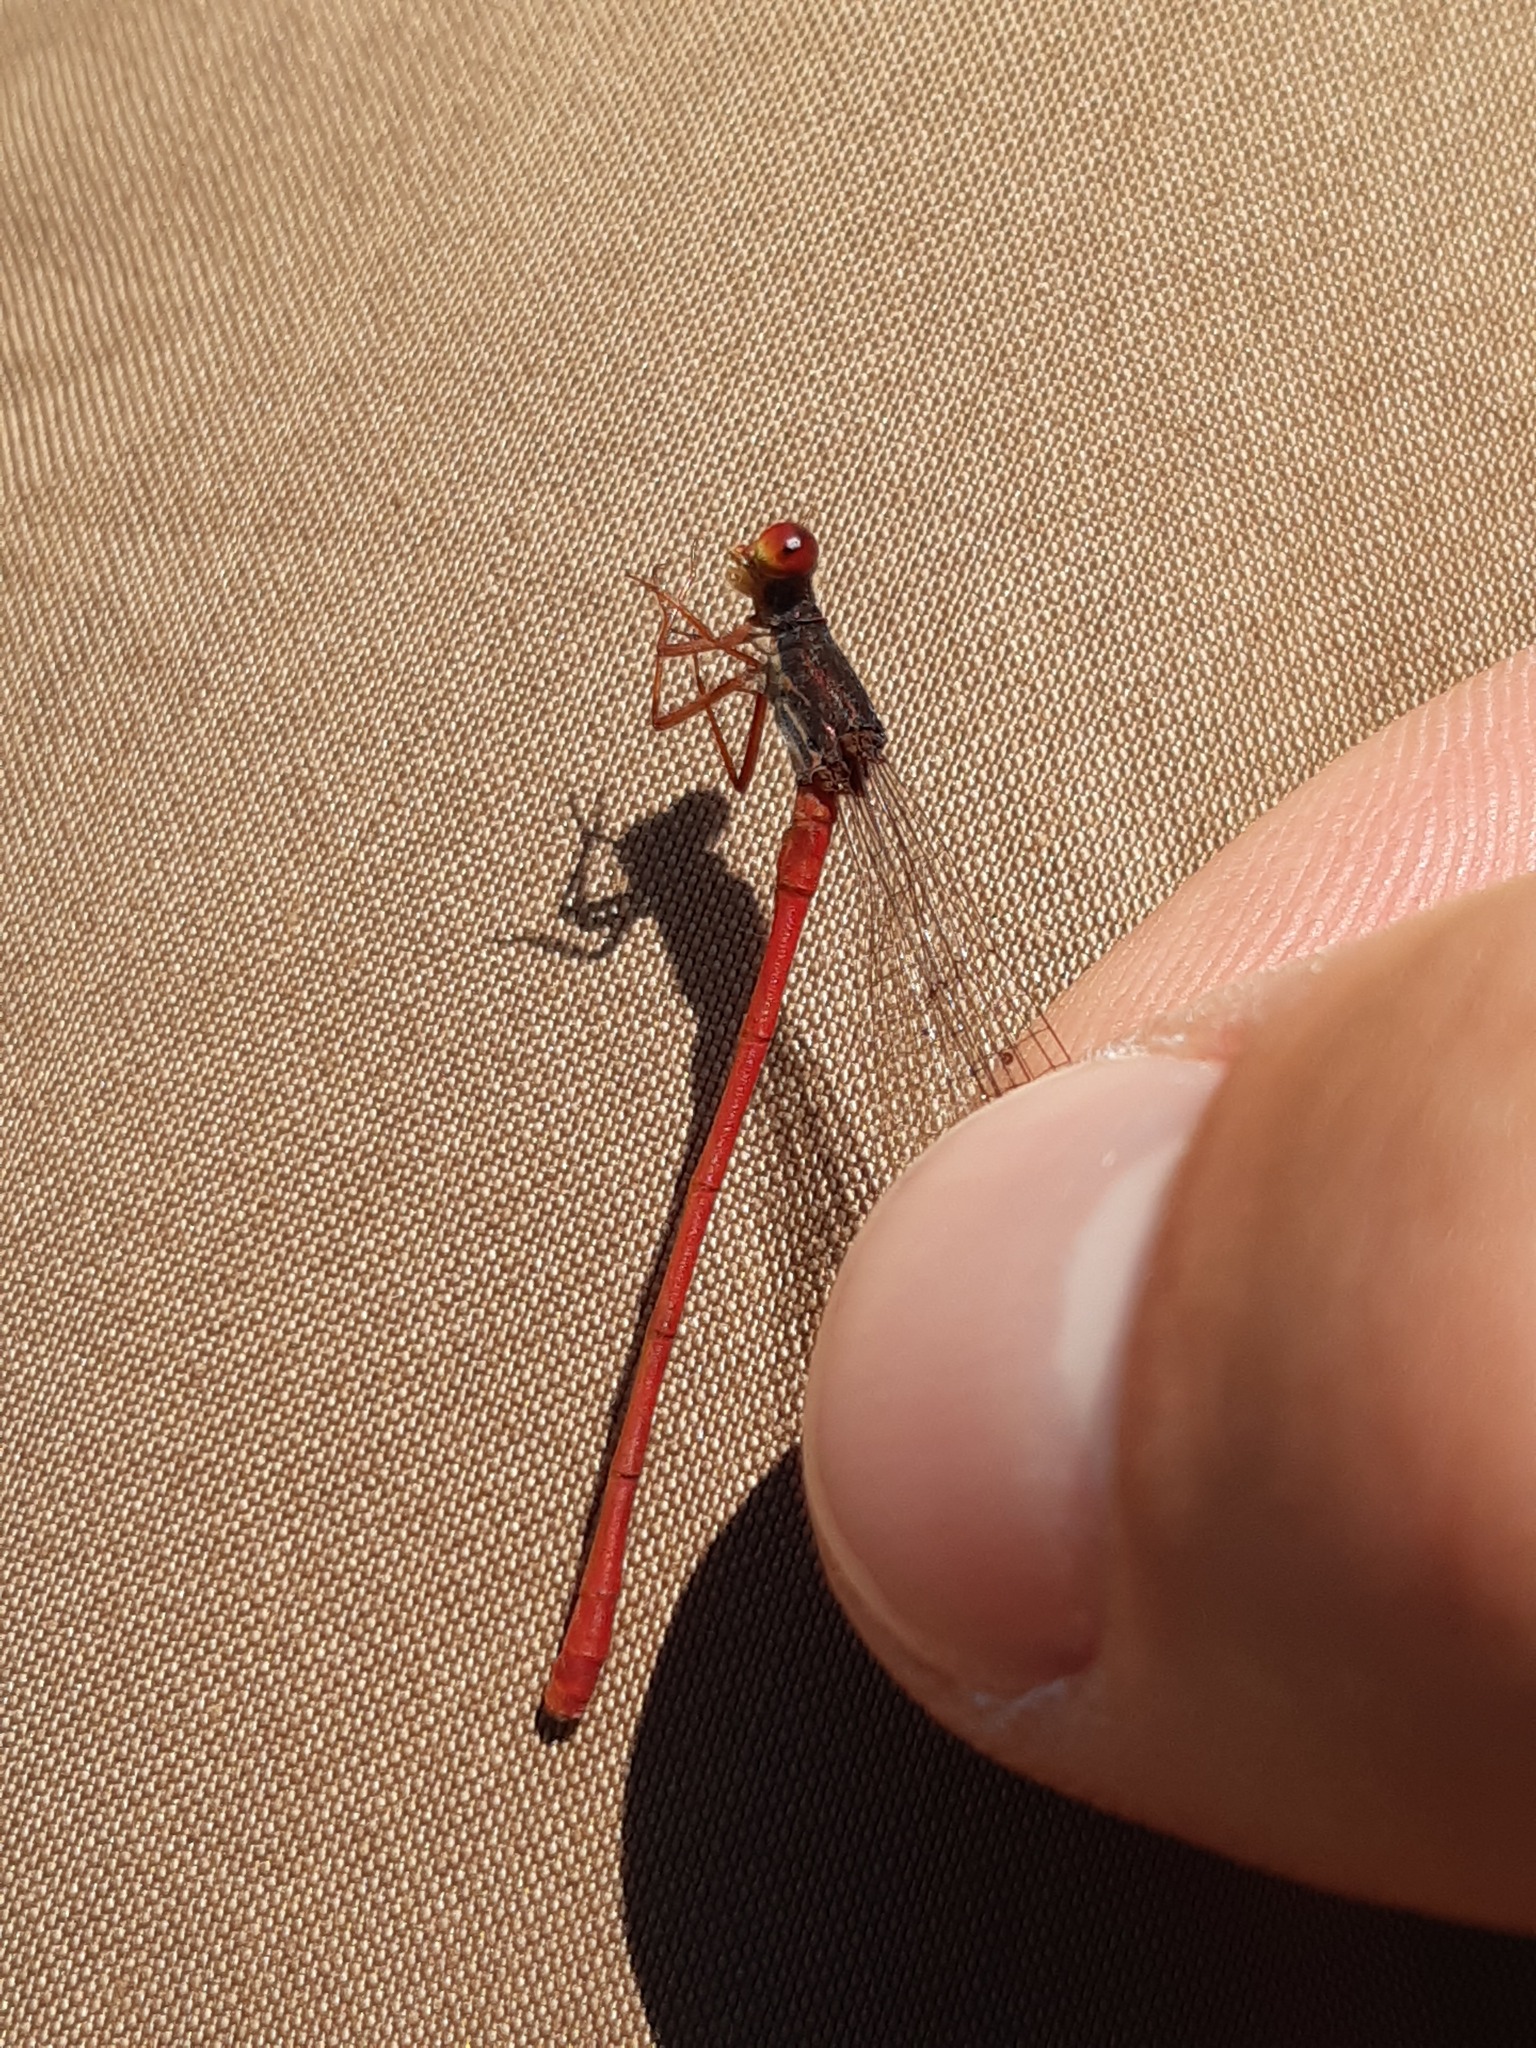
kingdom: Animalia
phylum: Arthropoda
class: Insecta
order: Odonata
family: Coenagrionidae
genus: Ceriagrion
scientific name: Ceriagrion tenellum
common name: Small red damselfly
